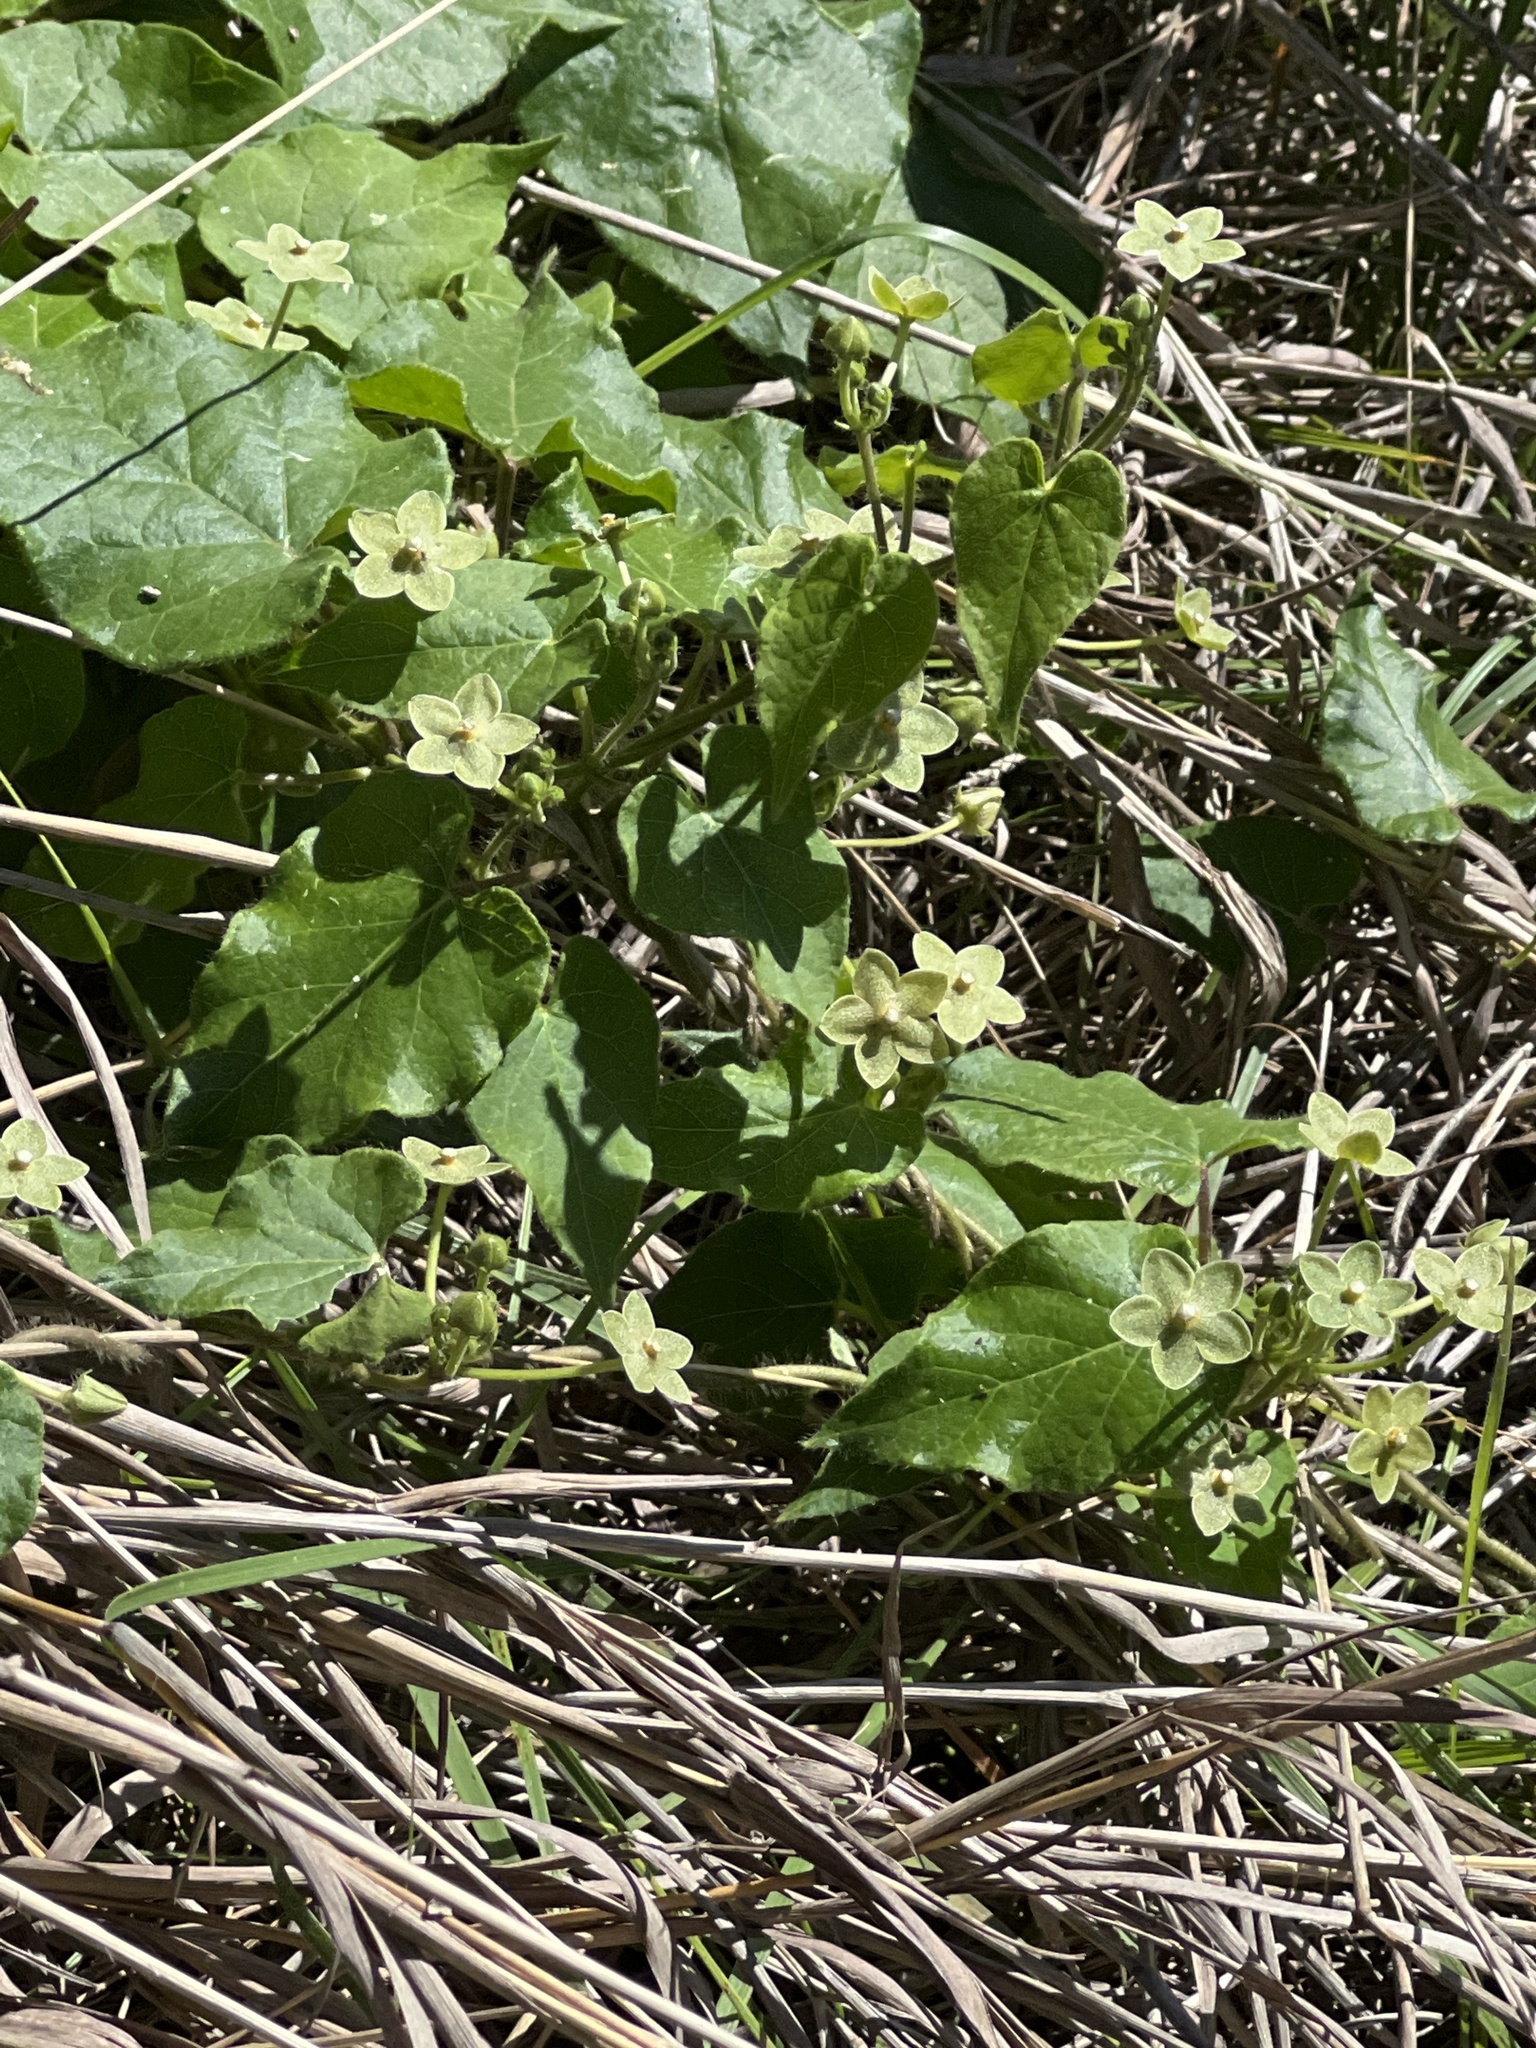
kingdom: Plantae
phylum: Tracheophyta
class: Magnoliopsida
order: Gentianales
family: Apocynaceae
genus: Dictyanthus
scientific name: Dictyanthus reticulatus
